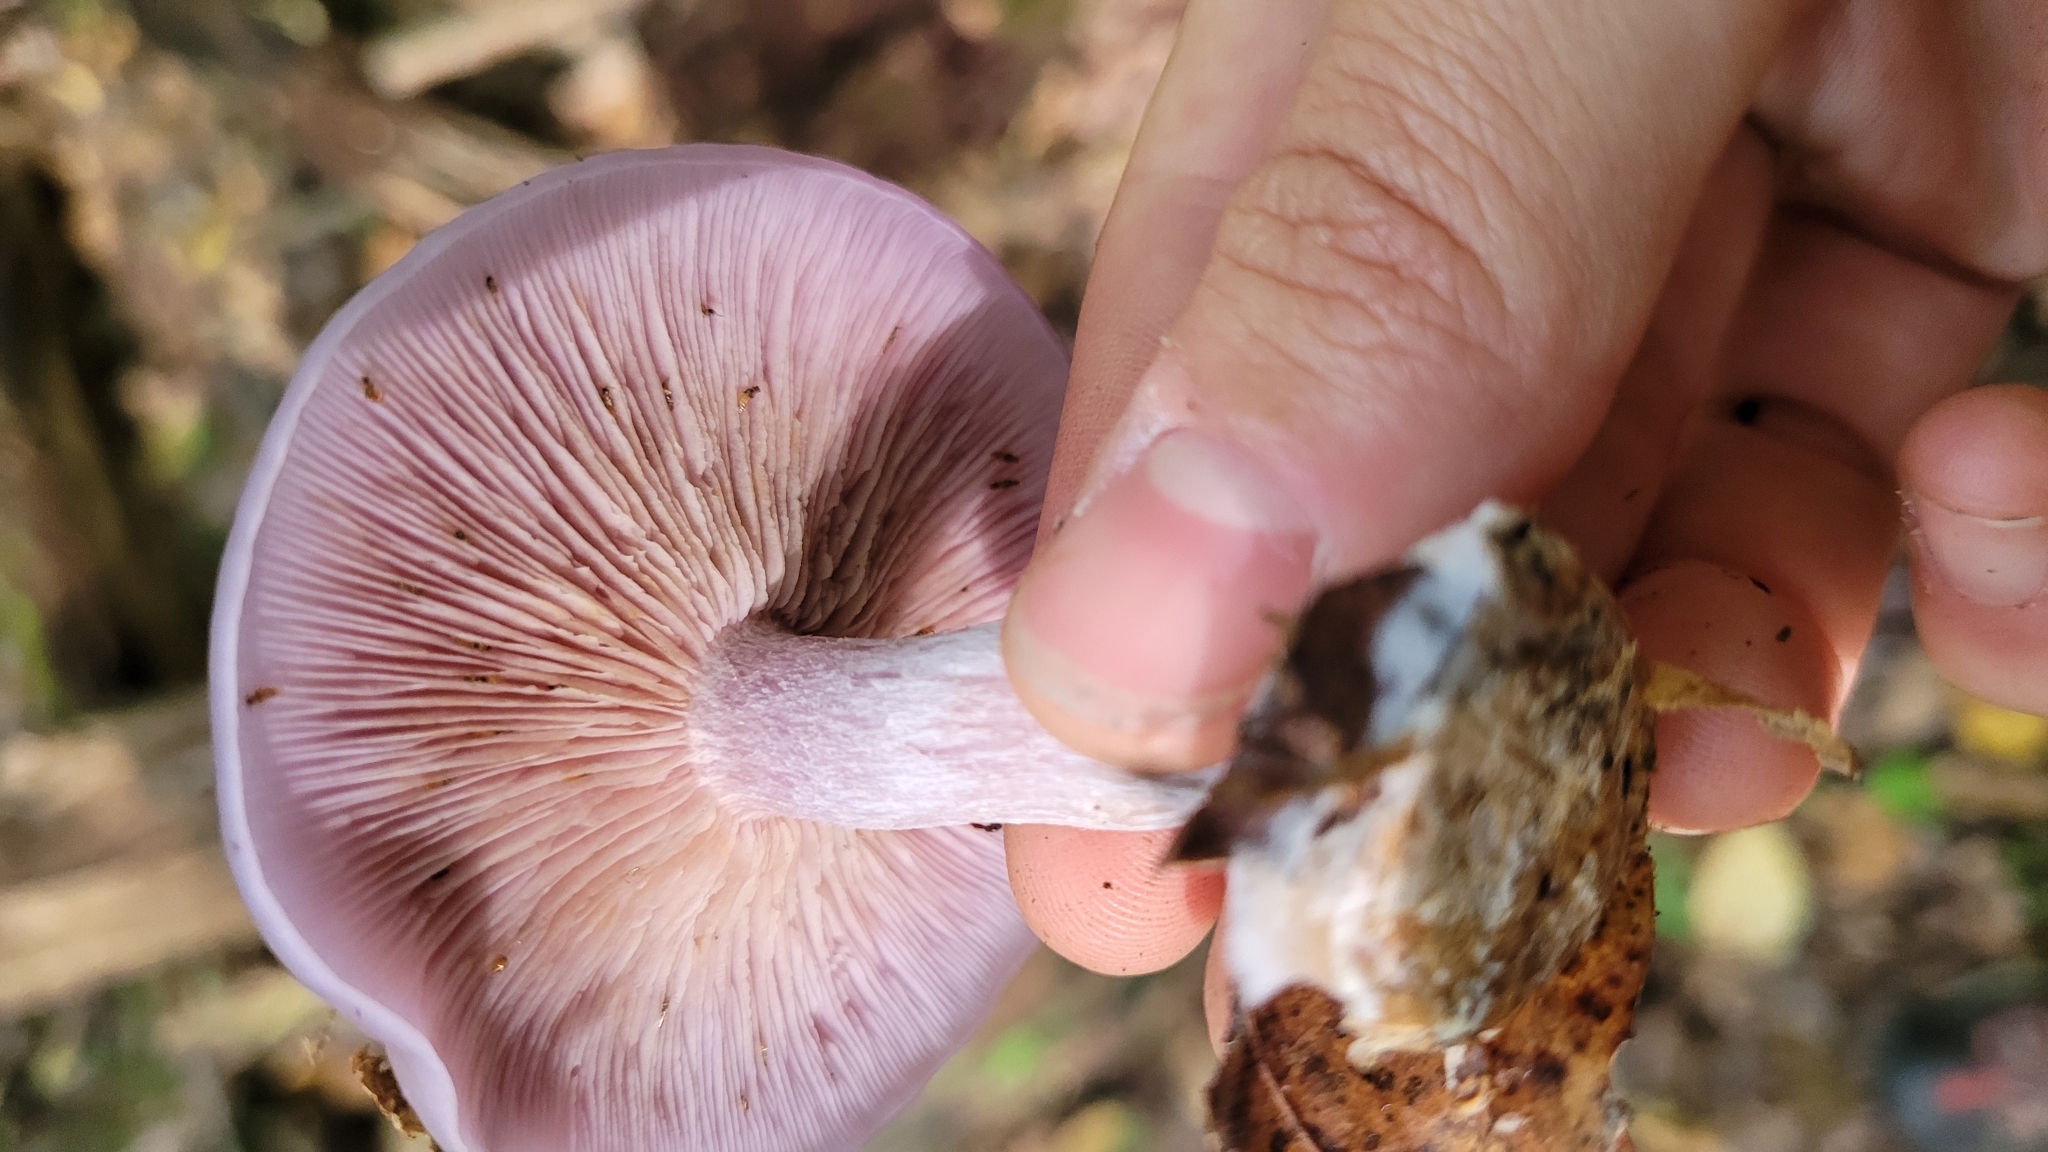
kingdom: Fungi
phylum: Basidiomycota
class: Agaricomycetes
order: Agaricales
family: Tricholomataceae
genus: Collybia
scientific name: Collybia
